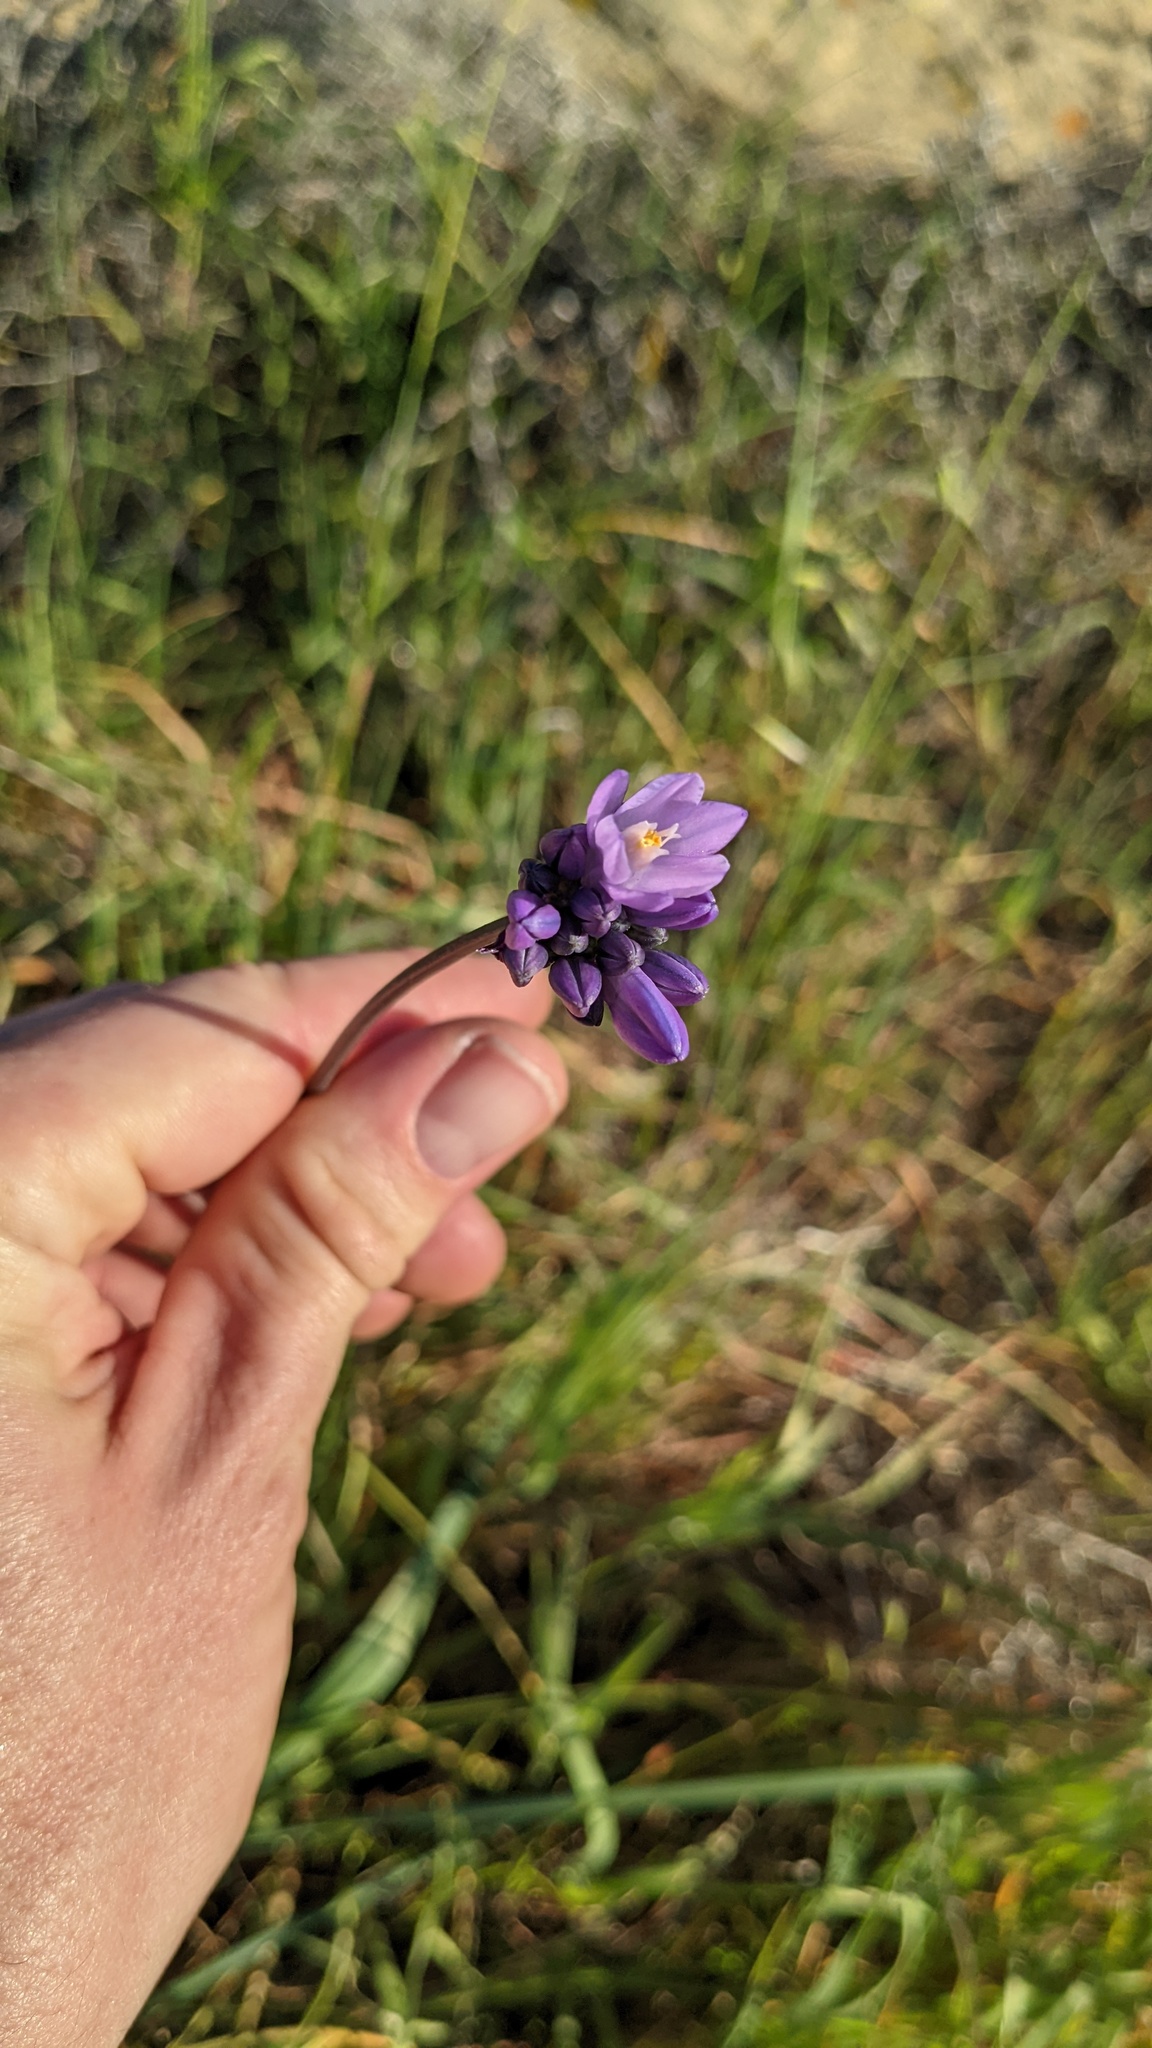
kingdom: Plantae
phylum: Tracheophyta
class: Liliopsida
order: Asparagales
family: Asparagaceae
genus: Dipterostemon
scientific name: Dipterostemon capitatus
